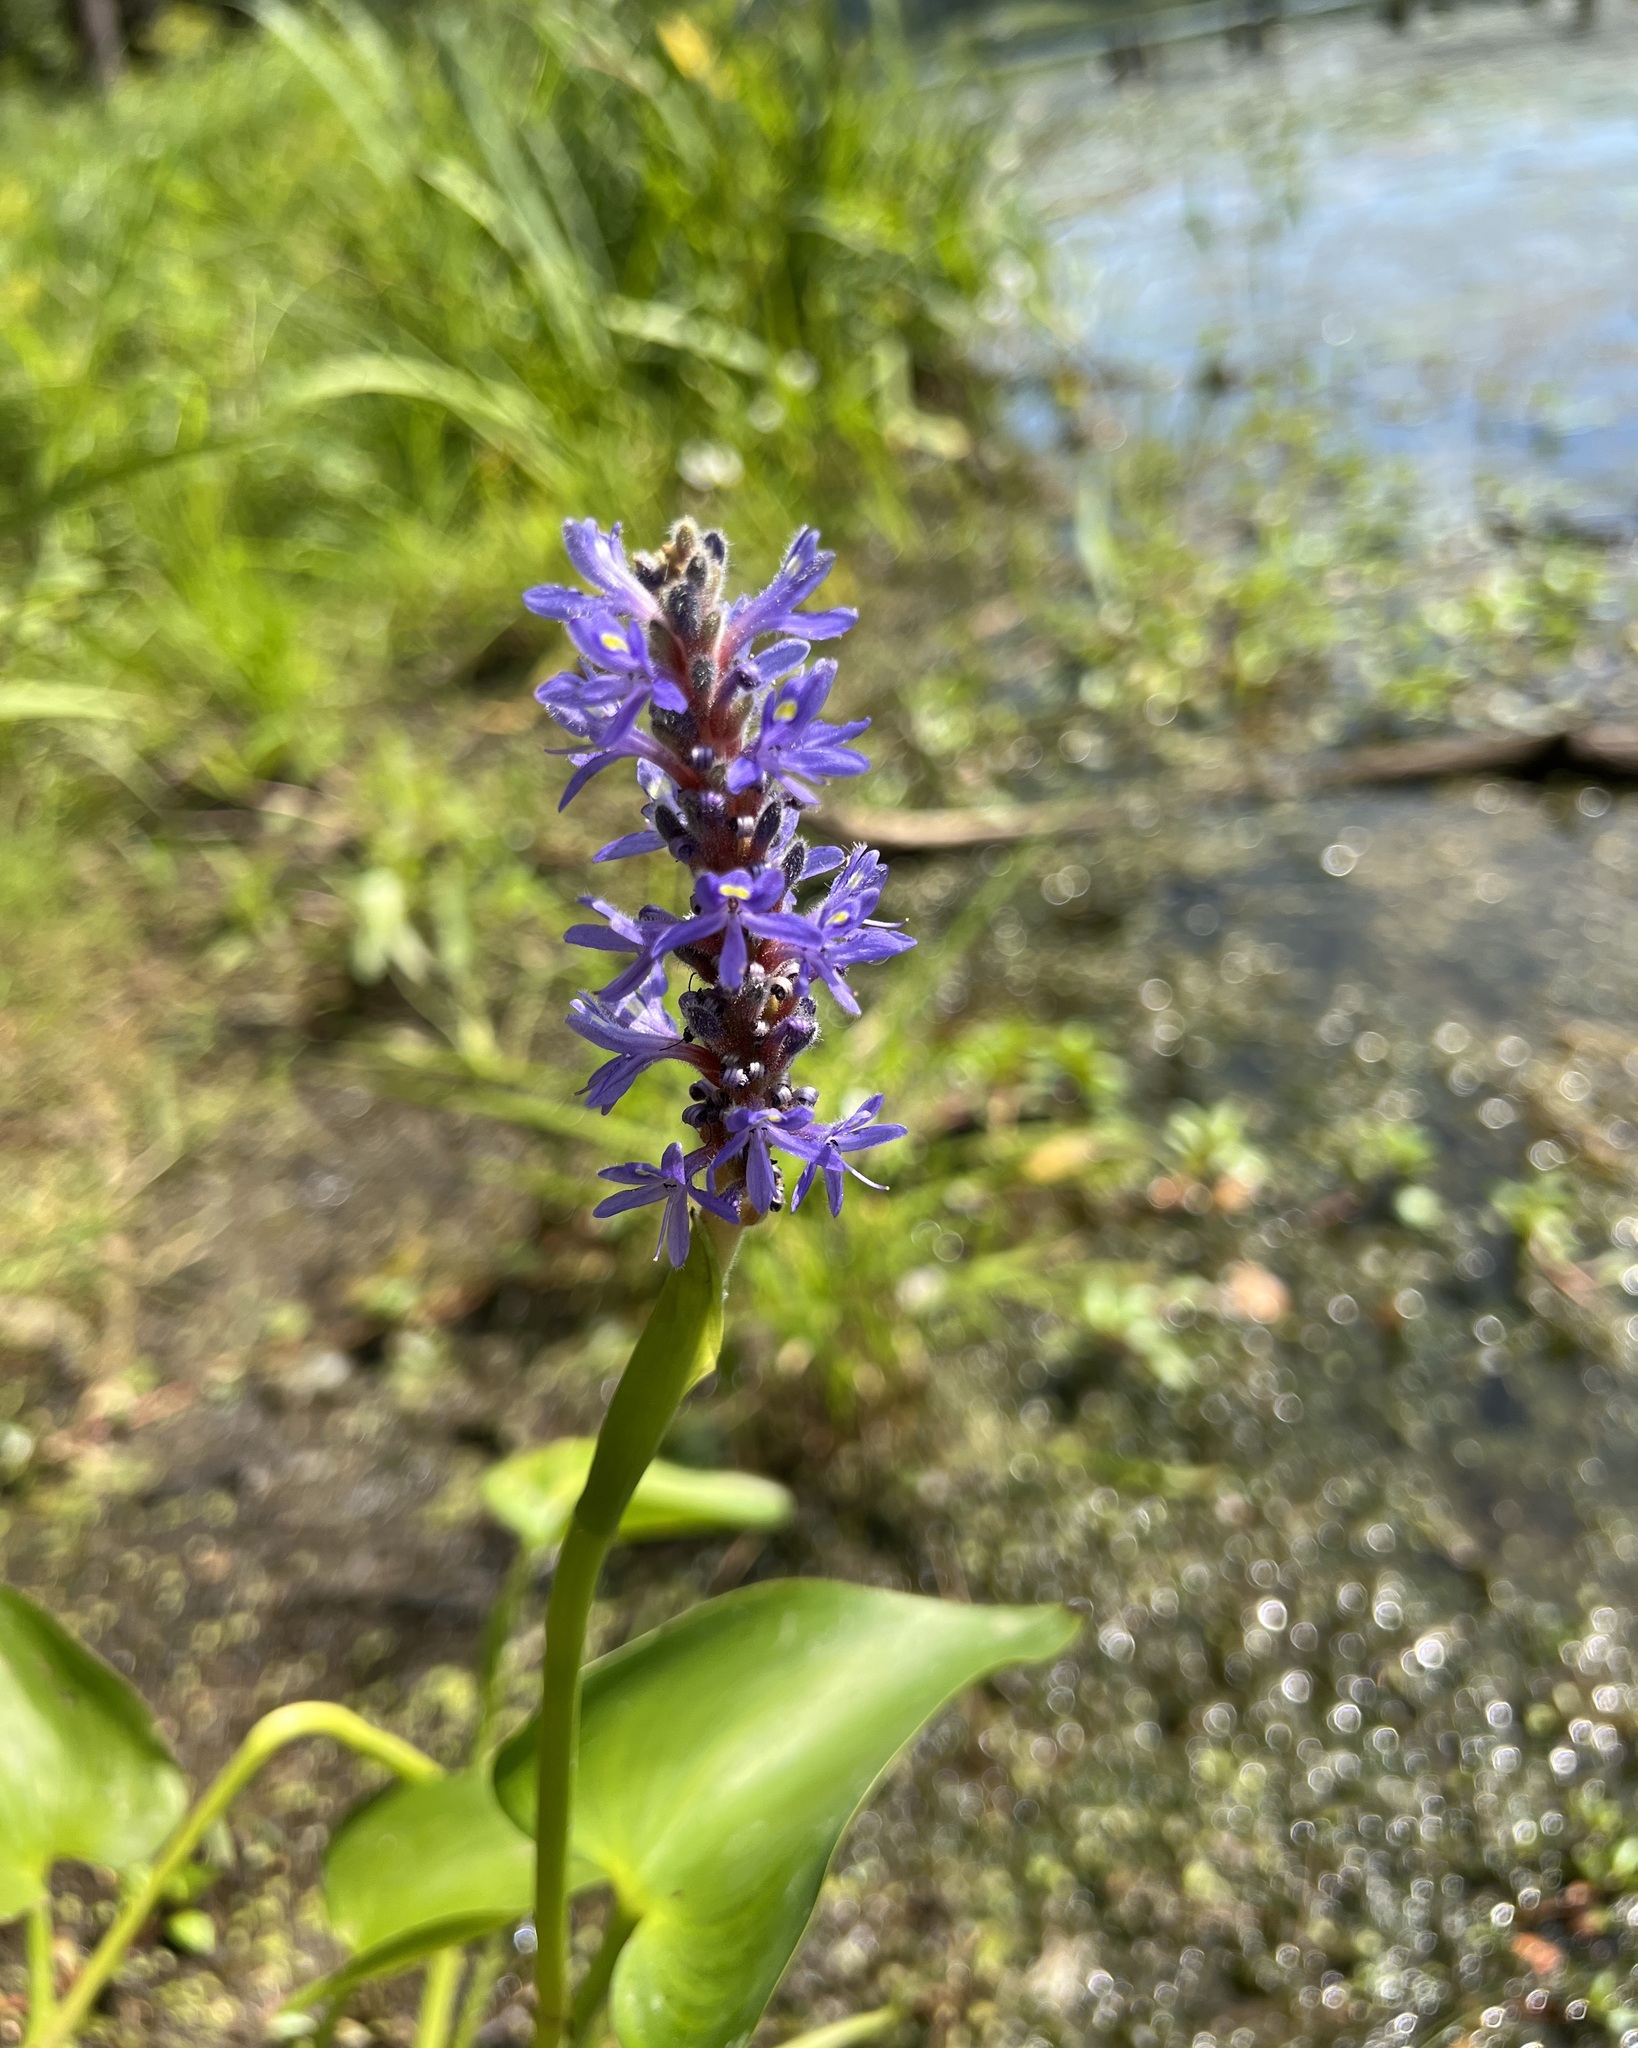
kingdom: Plantae
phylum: Tracheophyta
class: Liliopsida
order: Commelinales
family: Pontederiaceae
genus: Pontederia
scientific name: Pontederia cordata
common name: Pickerelweed
